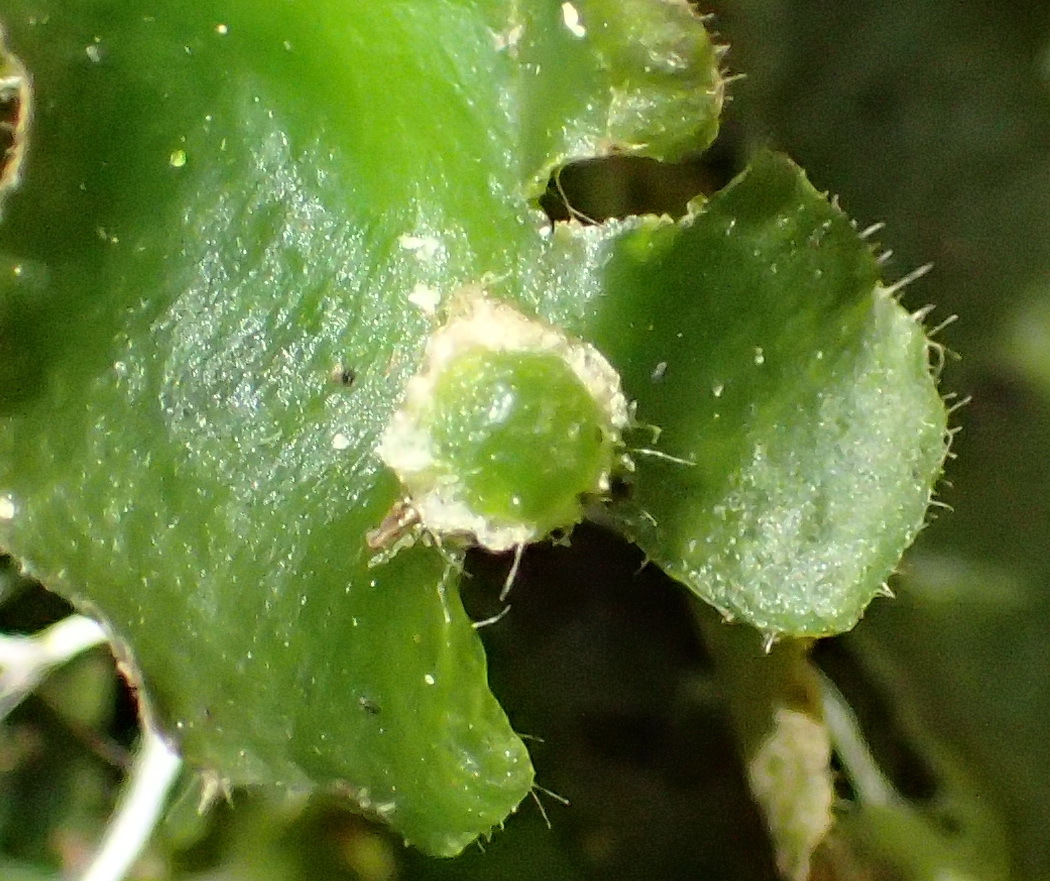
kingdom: Plantae
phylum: Marchantiophyta
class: Marchantiopsida
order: Marchantiales
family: Dumortieraceae
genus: Dumortiera
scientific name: Dumortiera hirsuta
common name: Dumortier's liverwort
